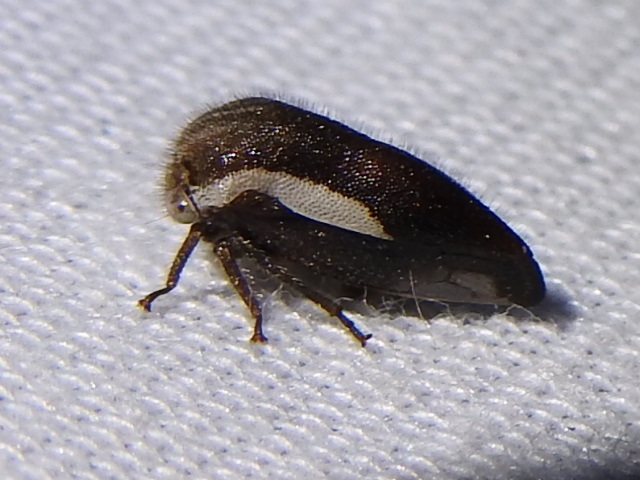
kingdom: Animalia
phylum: Arthropoda
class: Insecta
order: Hemiptera
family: Membracidae
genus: Ophiderma
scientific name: Ophiderma flavicephala
